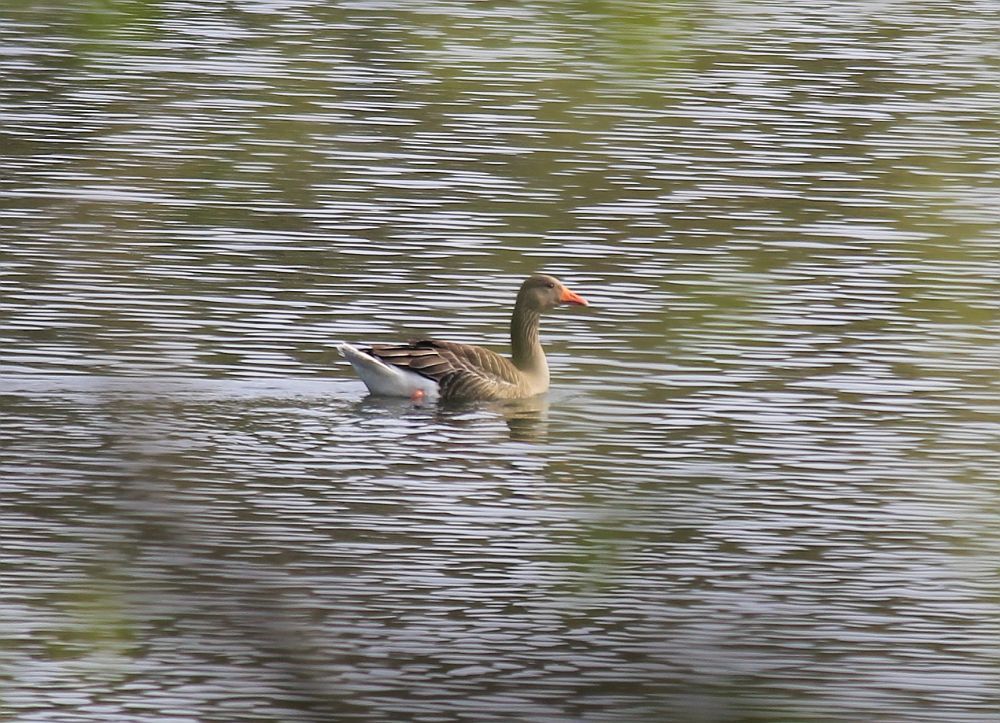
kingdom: Animalia
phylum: Chordata
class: Aves
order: Anseriformes
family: Anatidae
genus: Anser
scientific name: Anser anser
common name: Greylag goose
